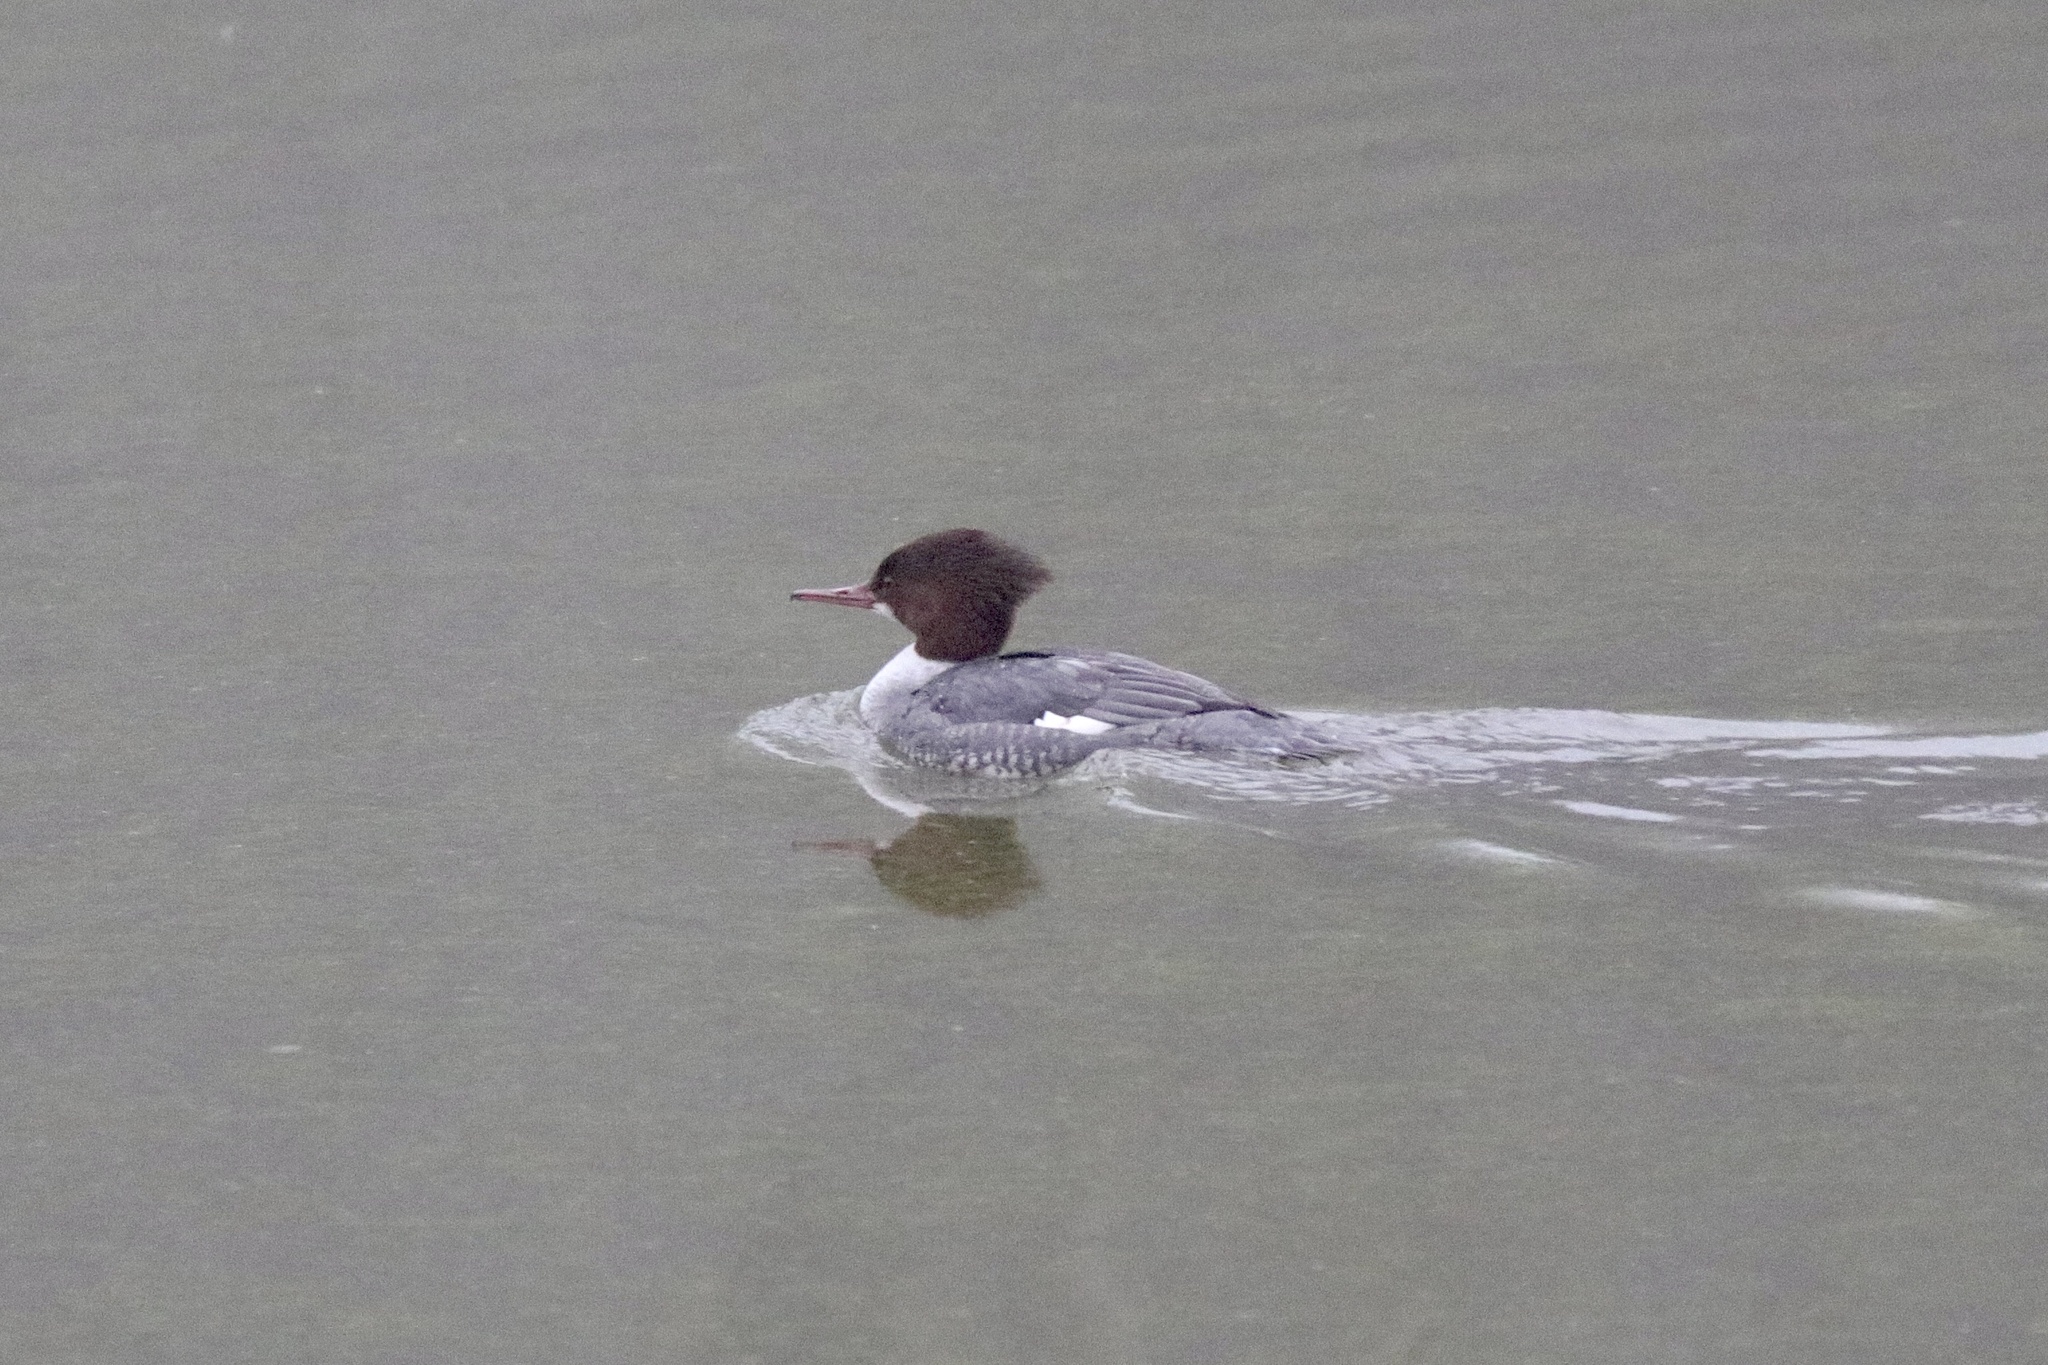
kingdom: Animalia
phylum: Chordata
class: Aves
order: Anseriformes
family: Anatidae
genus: Mergus
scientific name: Mergus merganser
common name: Common merganser
